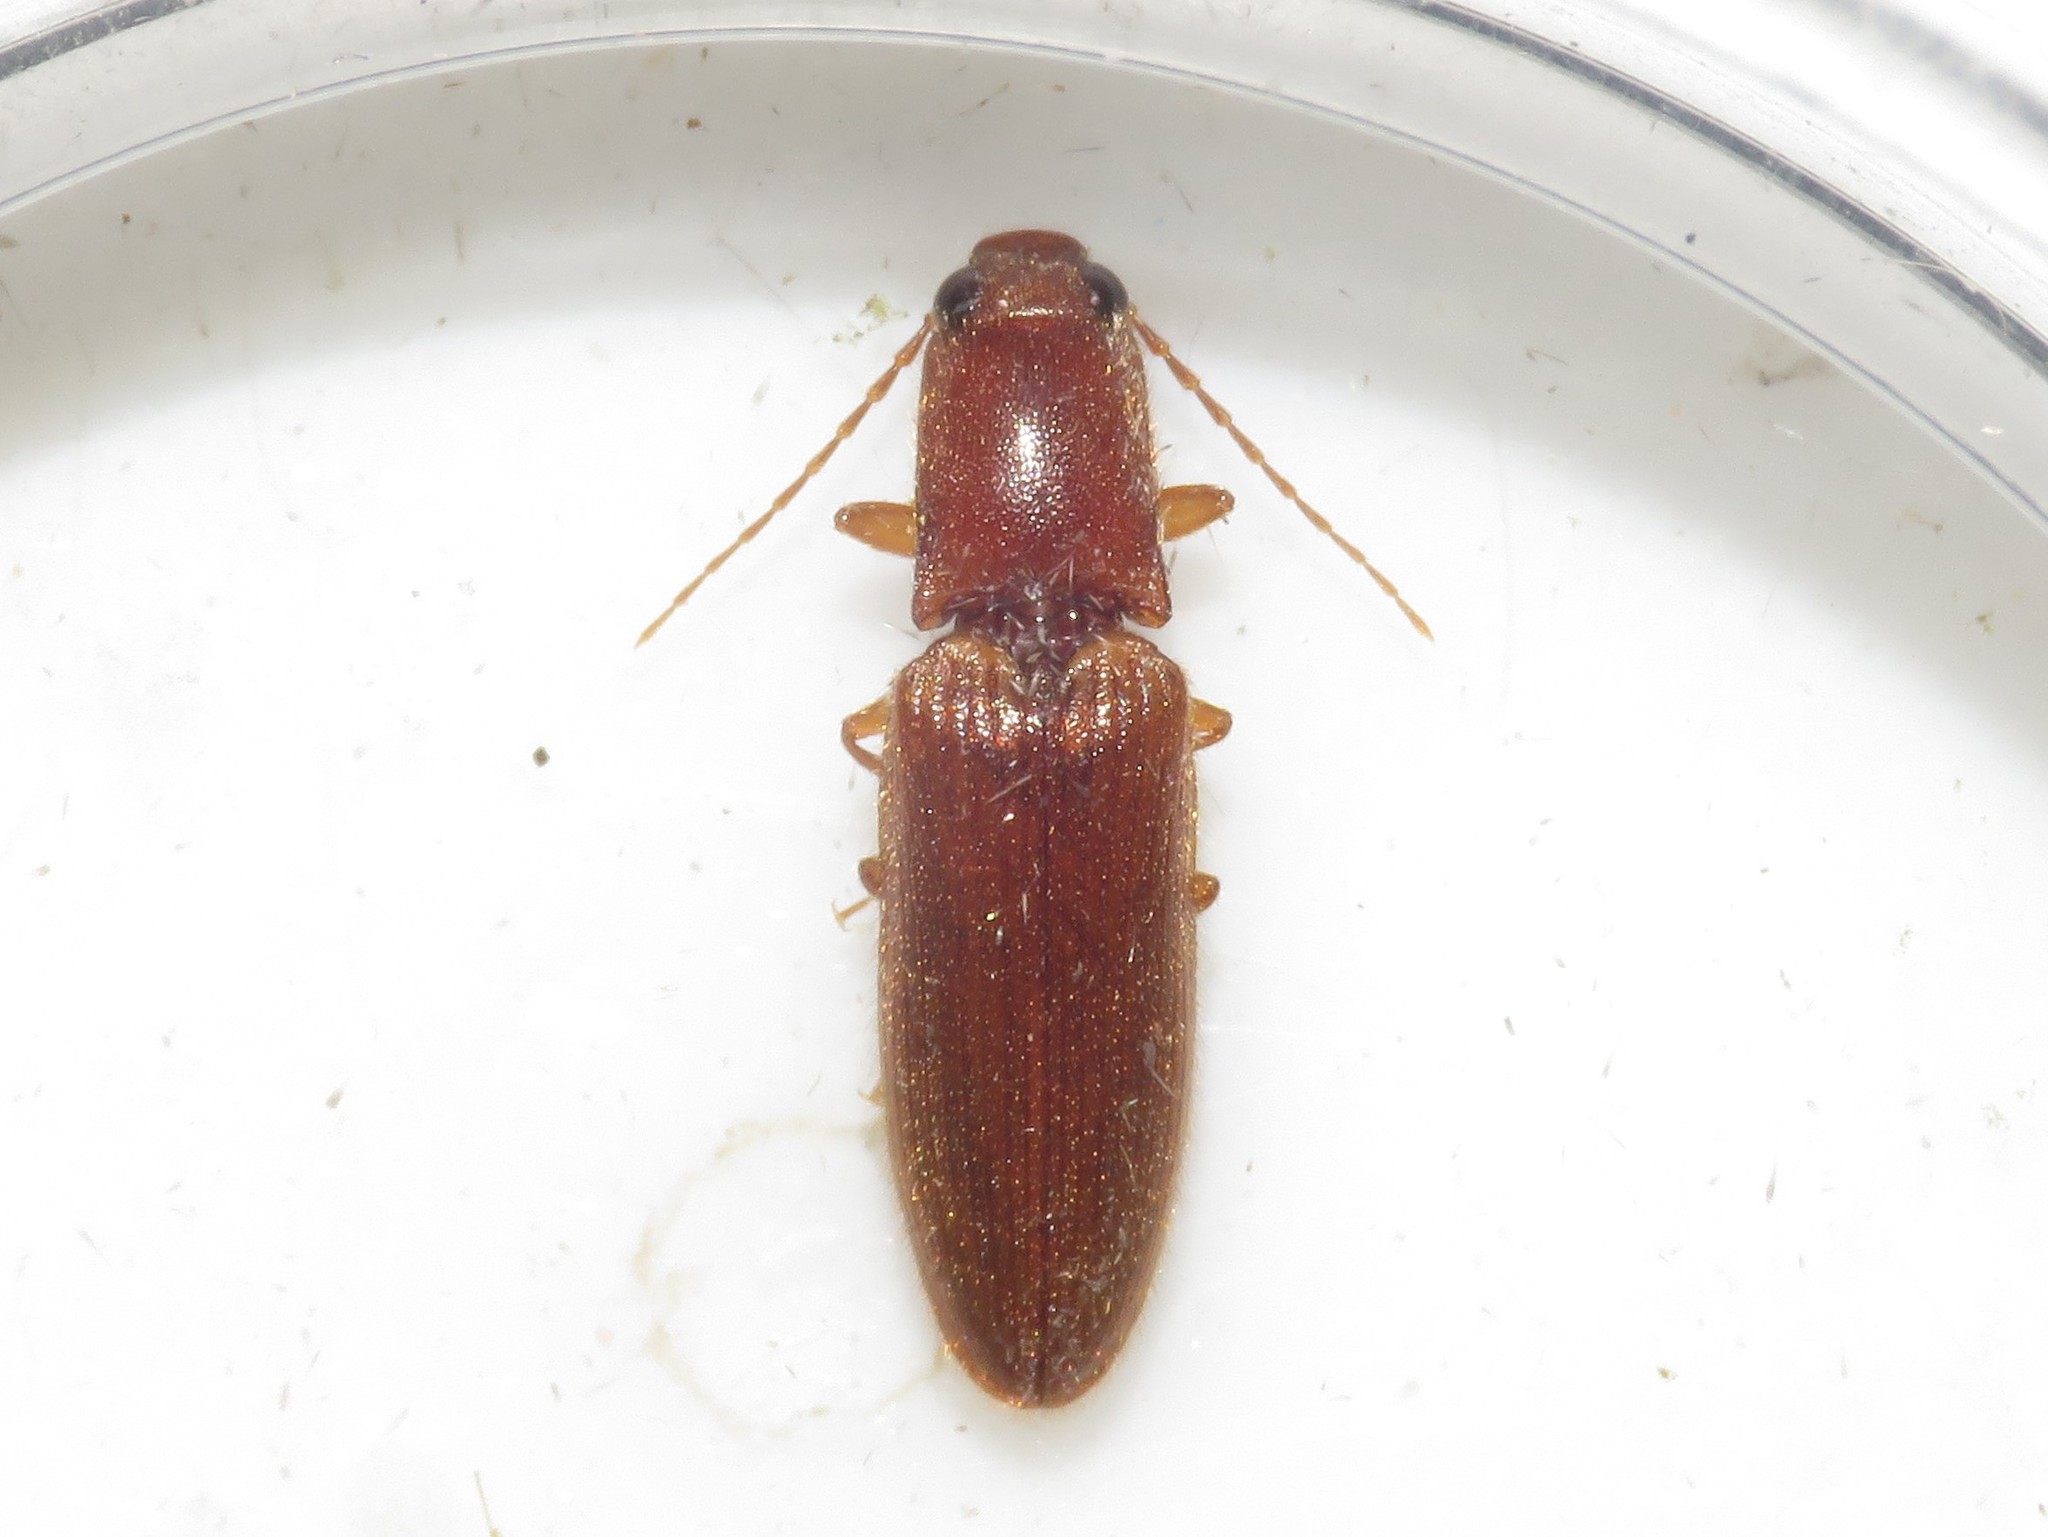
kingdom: Animalia
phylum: Arthropoda
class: Insecta
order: Coleoptera
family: Elateridae
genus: Athous
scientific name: Athous cucullatus
